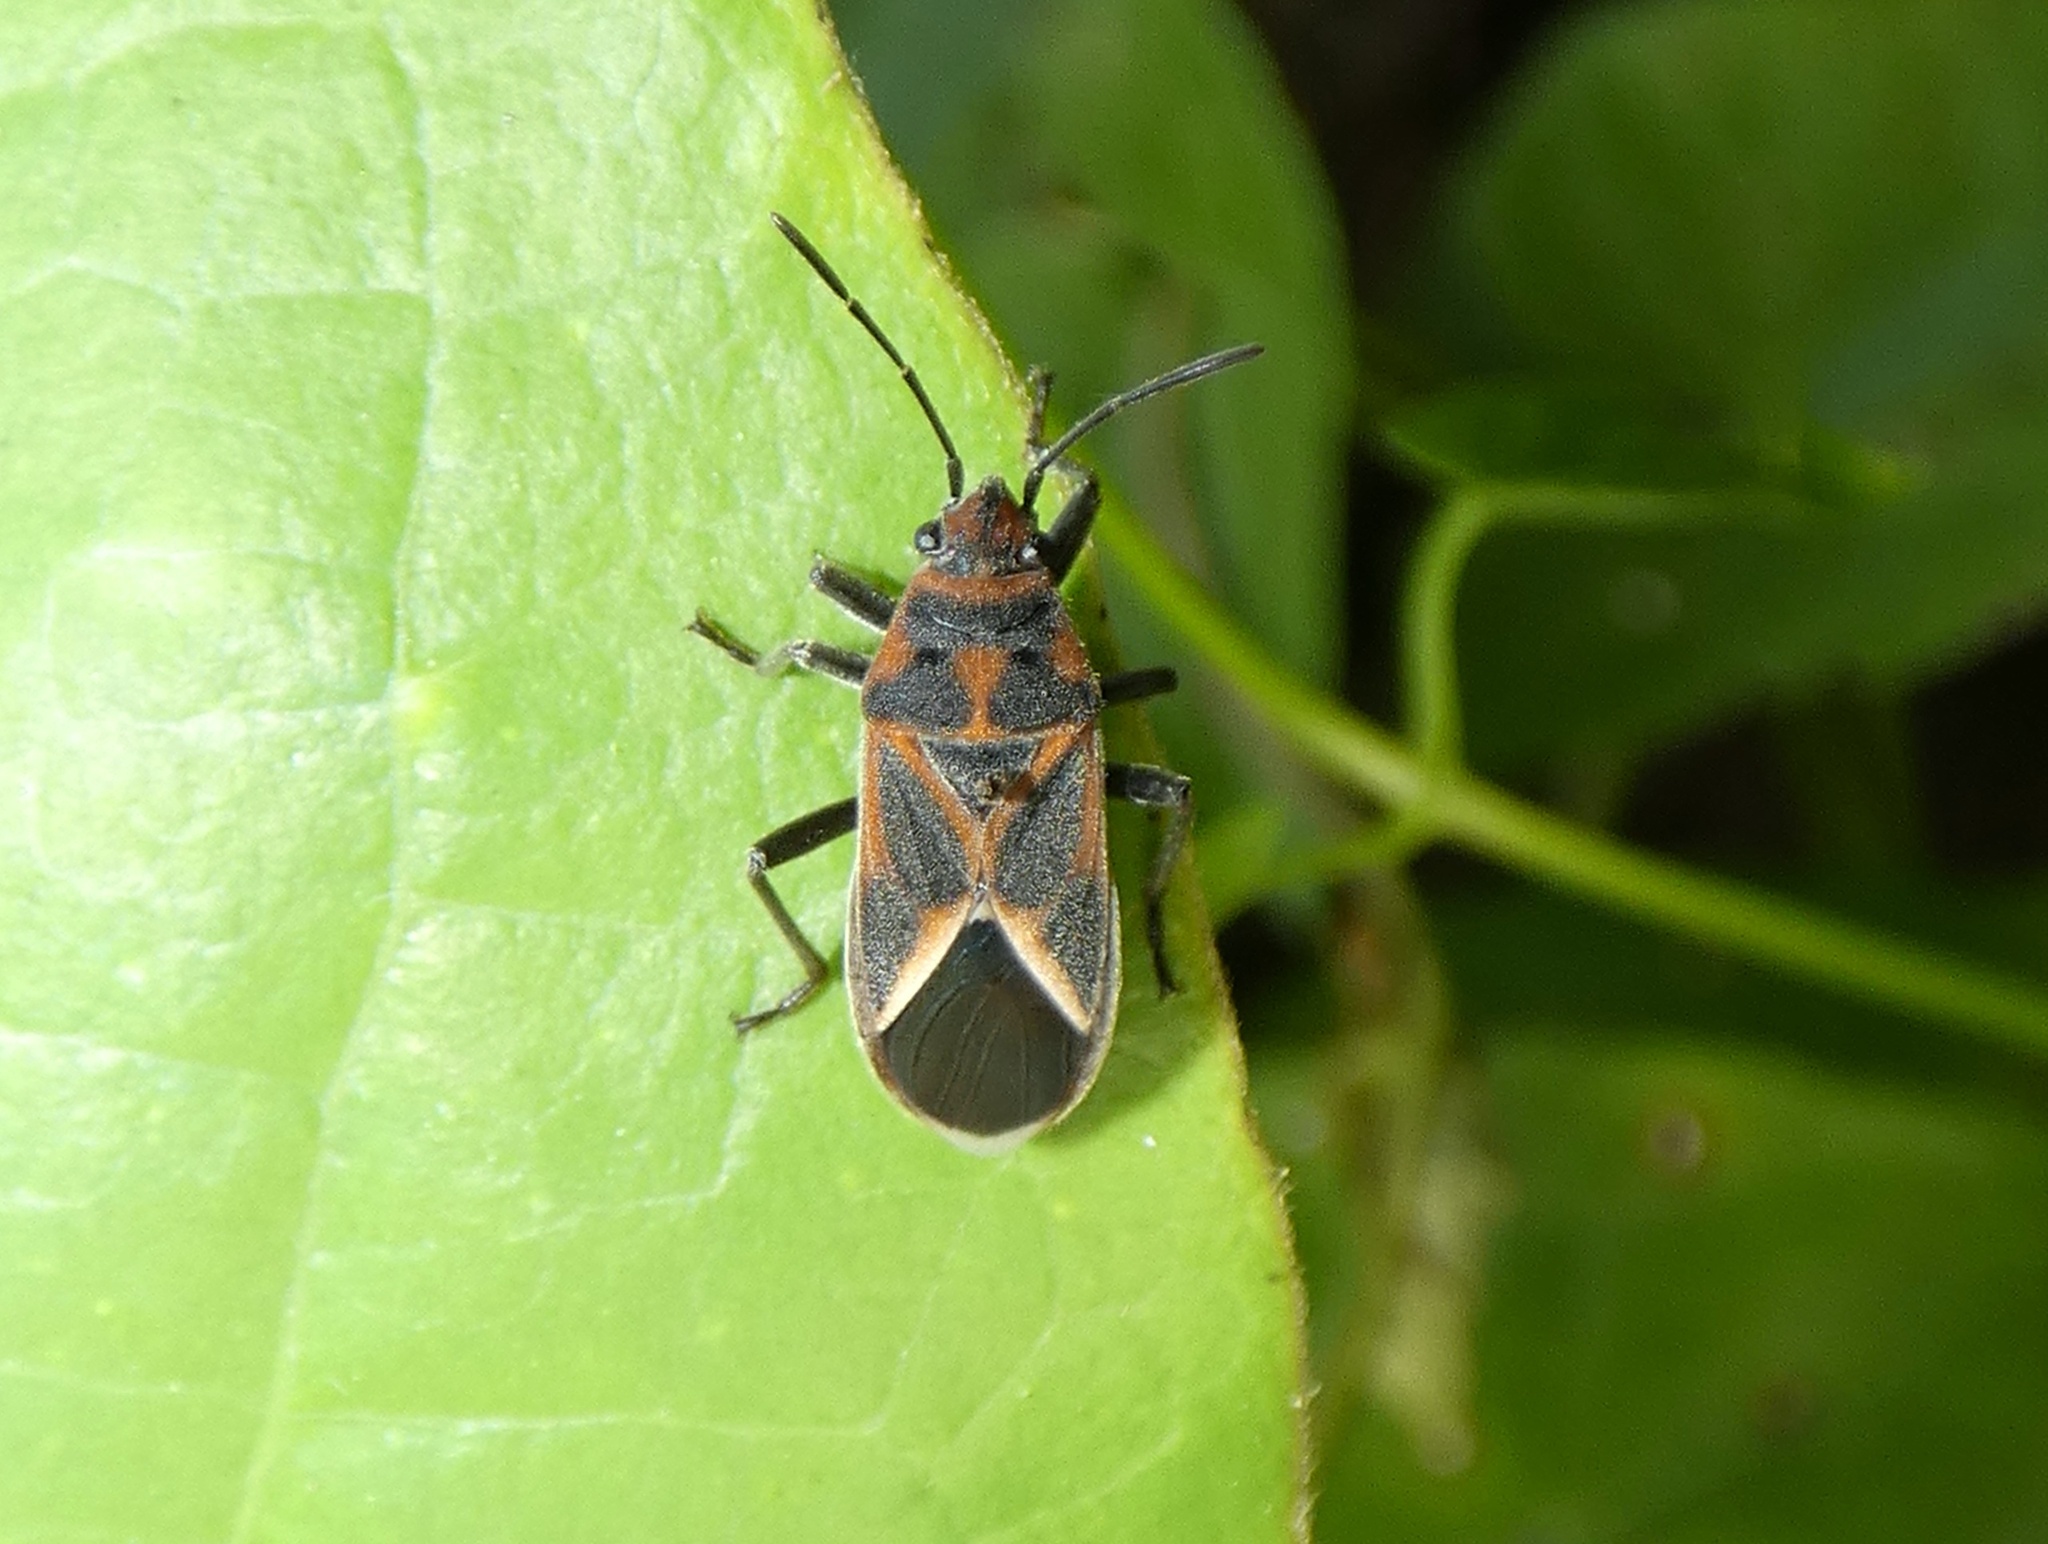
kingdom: Animalia
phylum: Arthropoda
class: Insecta
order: Hemiptera
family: Lygaeidae
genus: Graptostethus
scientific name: Graptostethus servus
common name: Lygaeid bug
